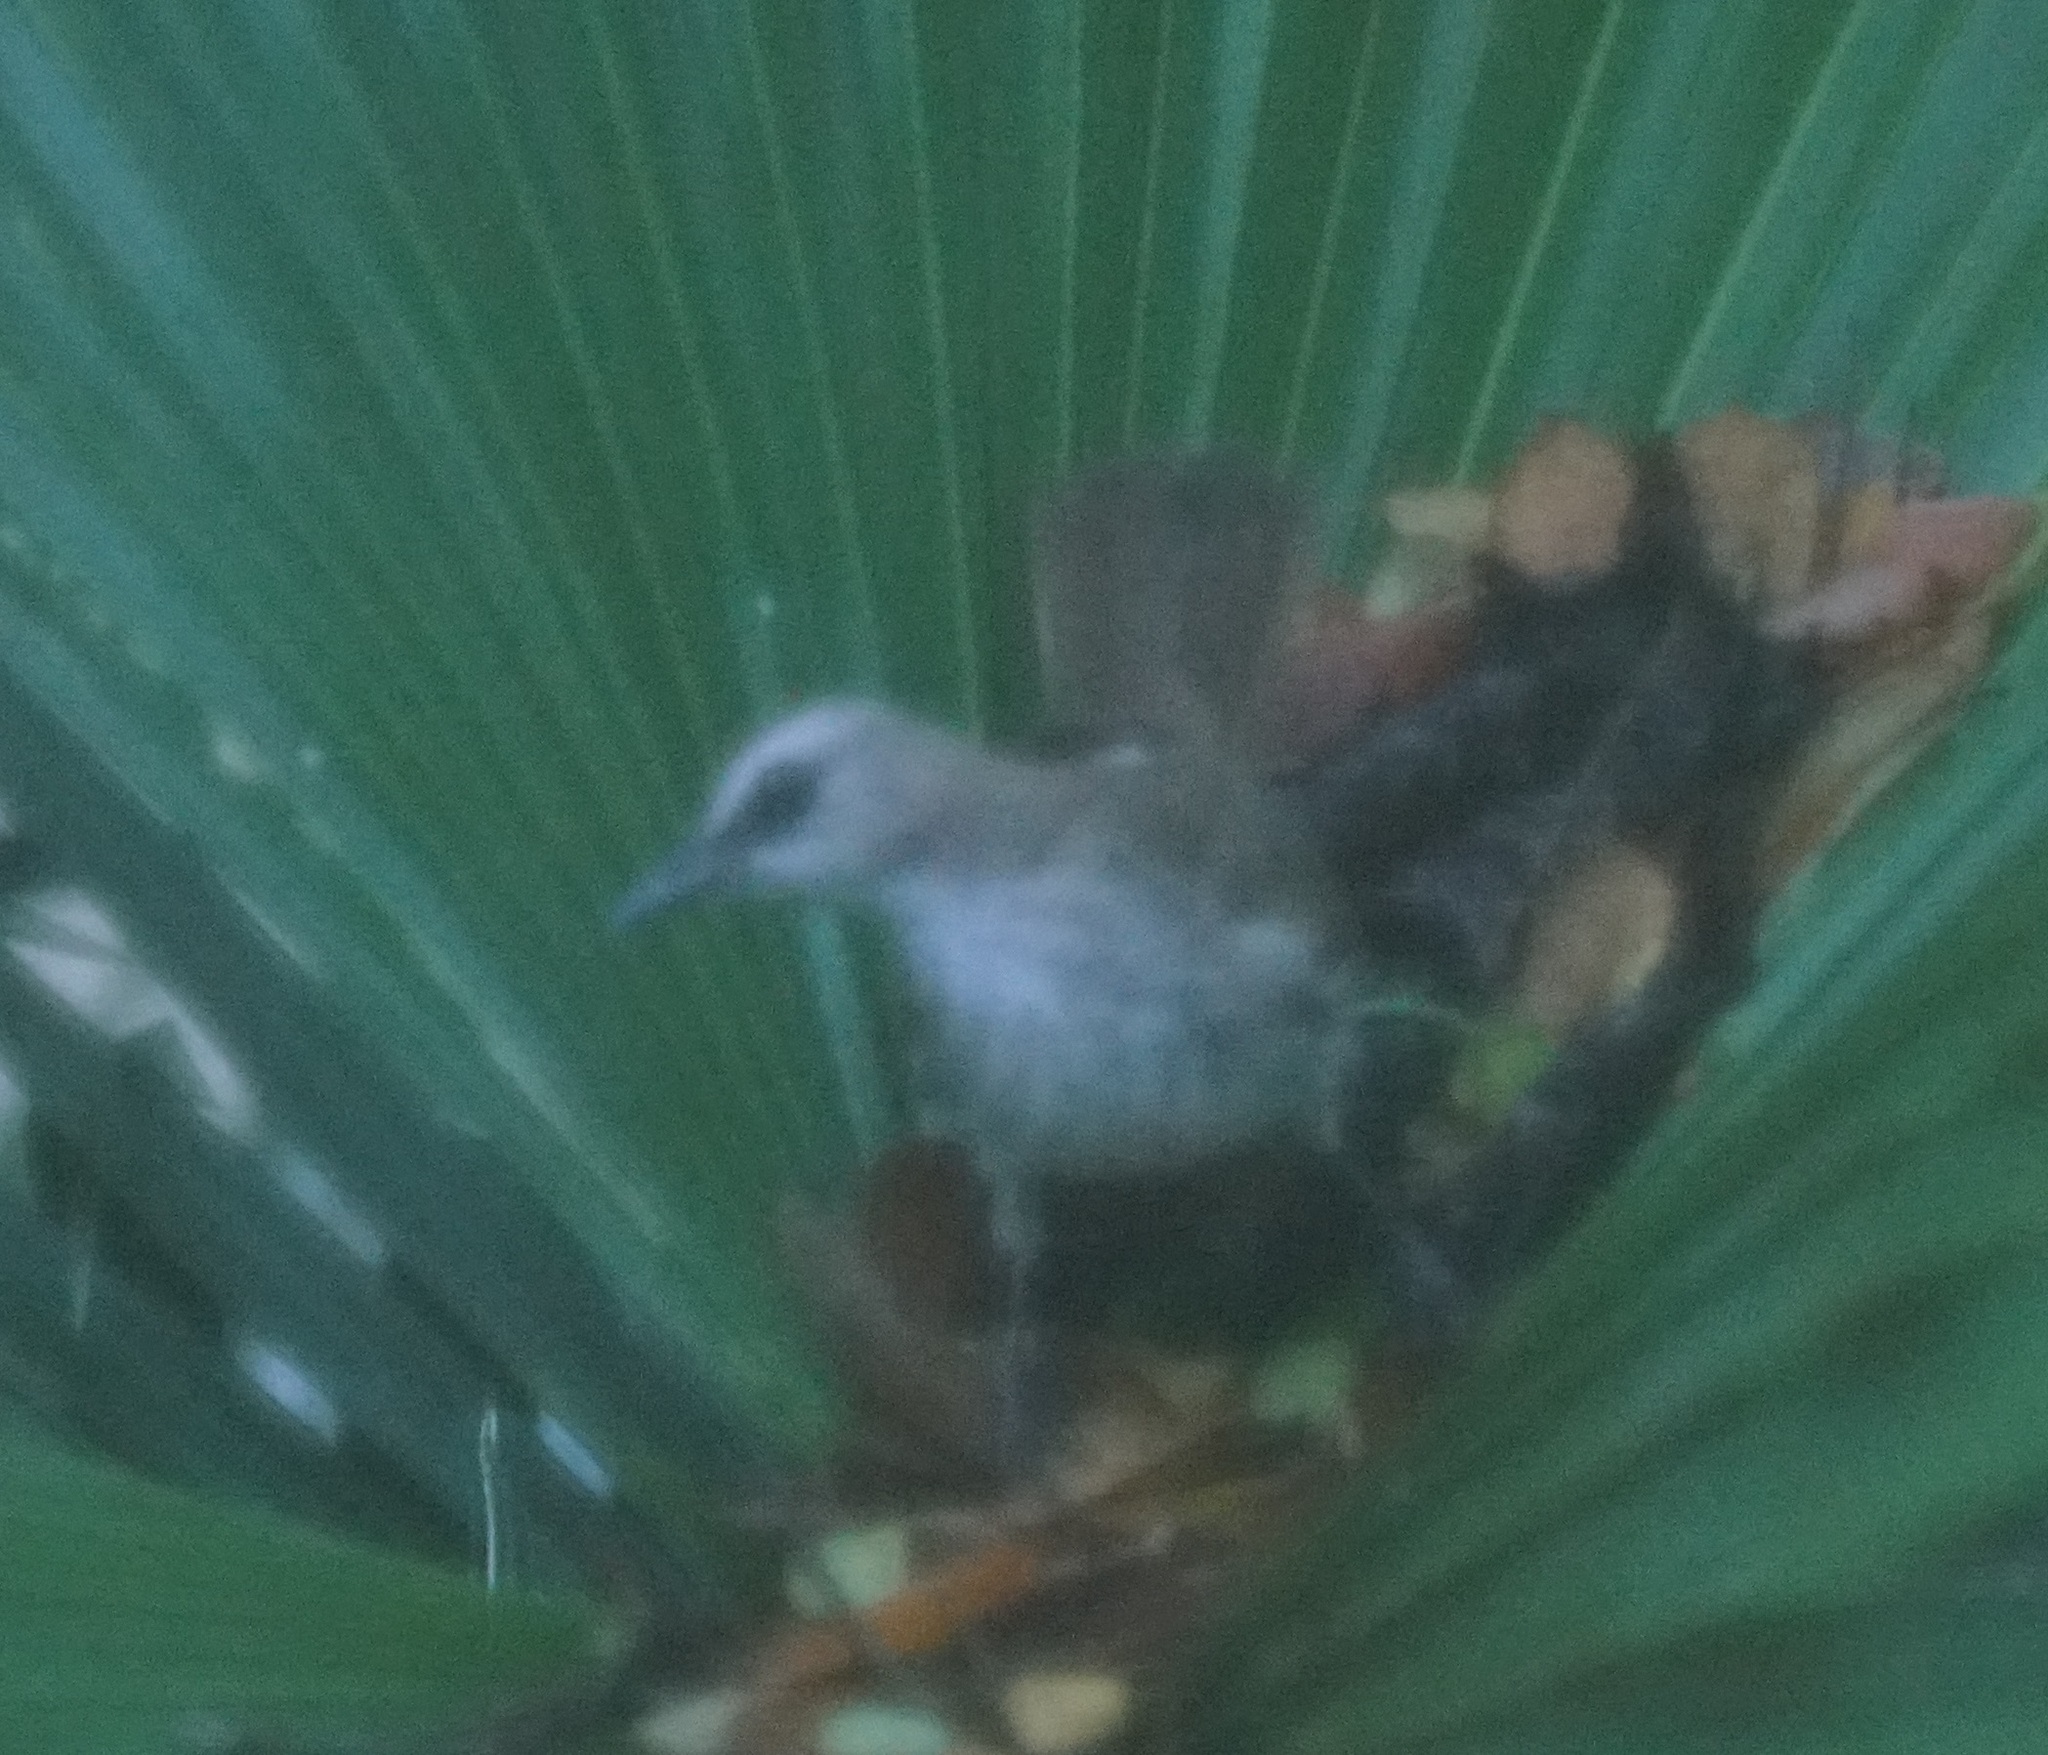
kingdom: Animalia
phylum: Chordata
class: Aves
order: Passeriformes
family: Pycnonotidae
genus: Pycnonotus
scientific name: Pycnonotus goiavier
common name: Yellow-vented bulbul
